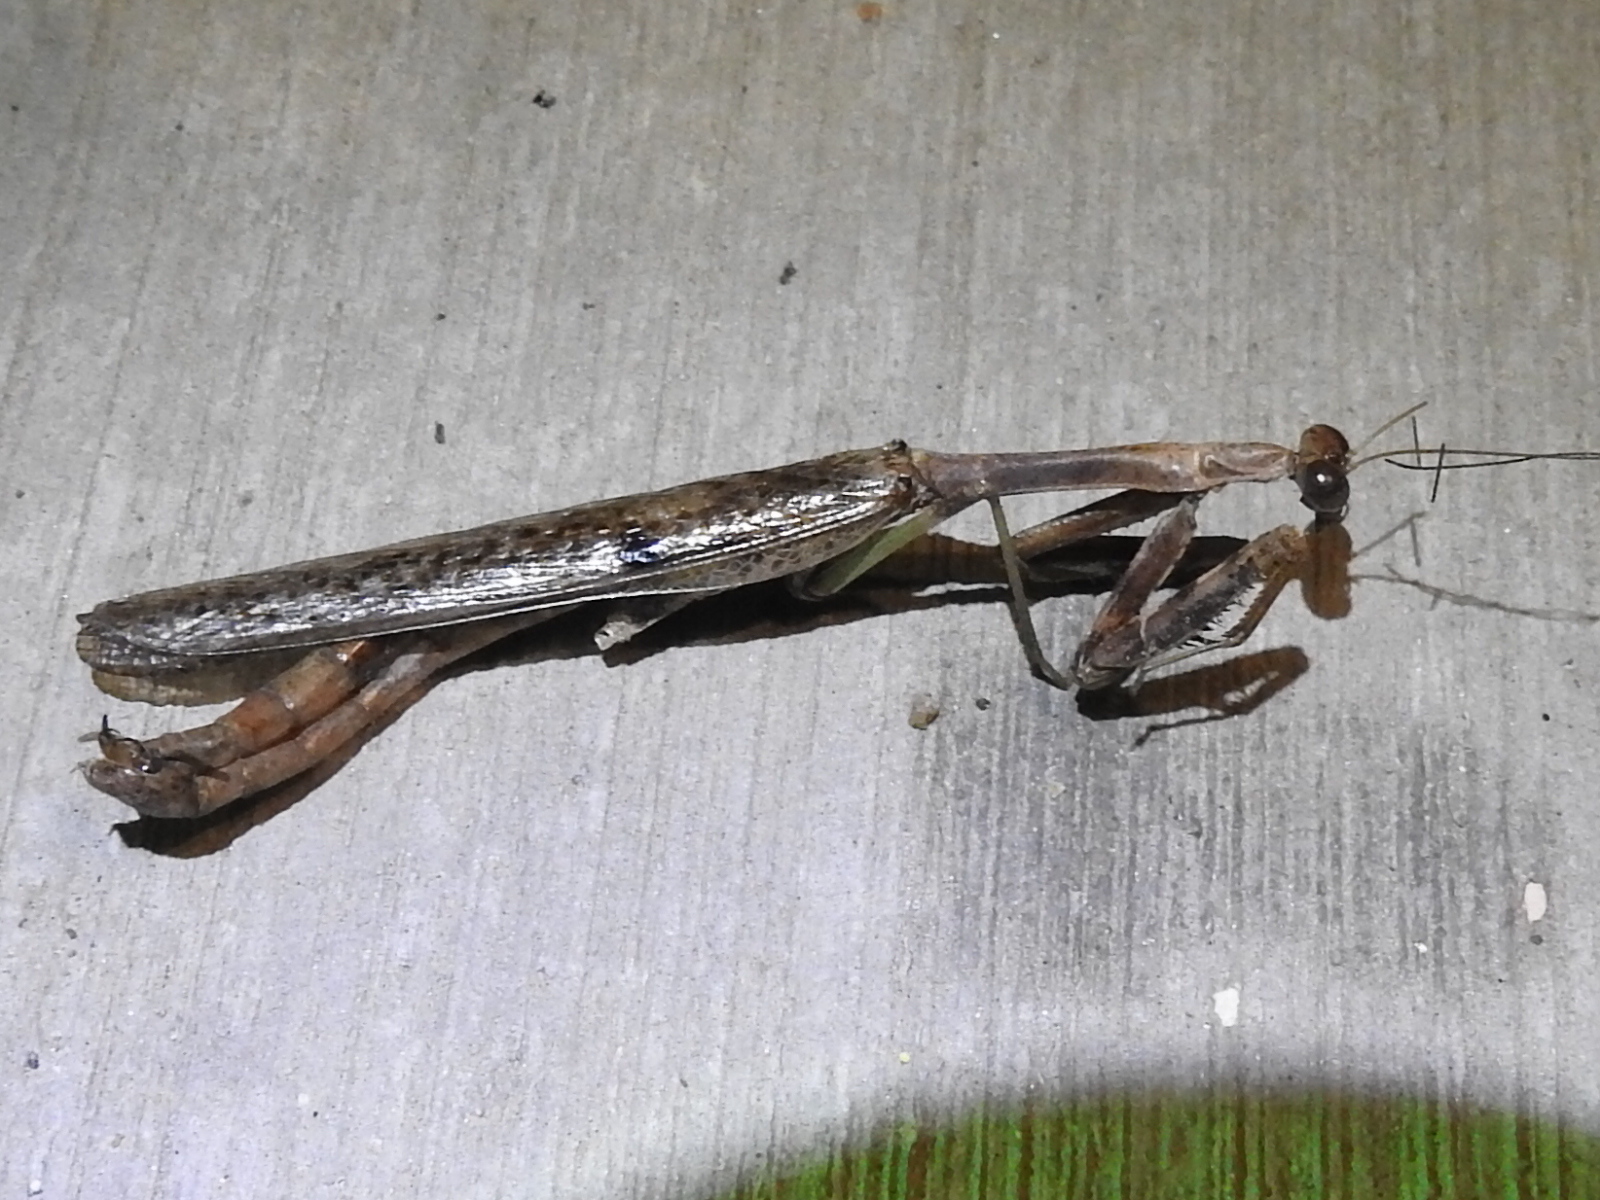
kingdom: Animalia
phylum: Arthropoda
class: Insecta
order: Mantodea
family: Mantidae
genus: Stagmomantis
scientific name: Stagmomantis carolina
